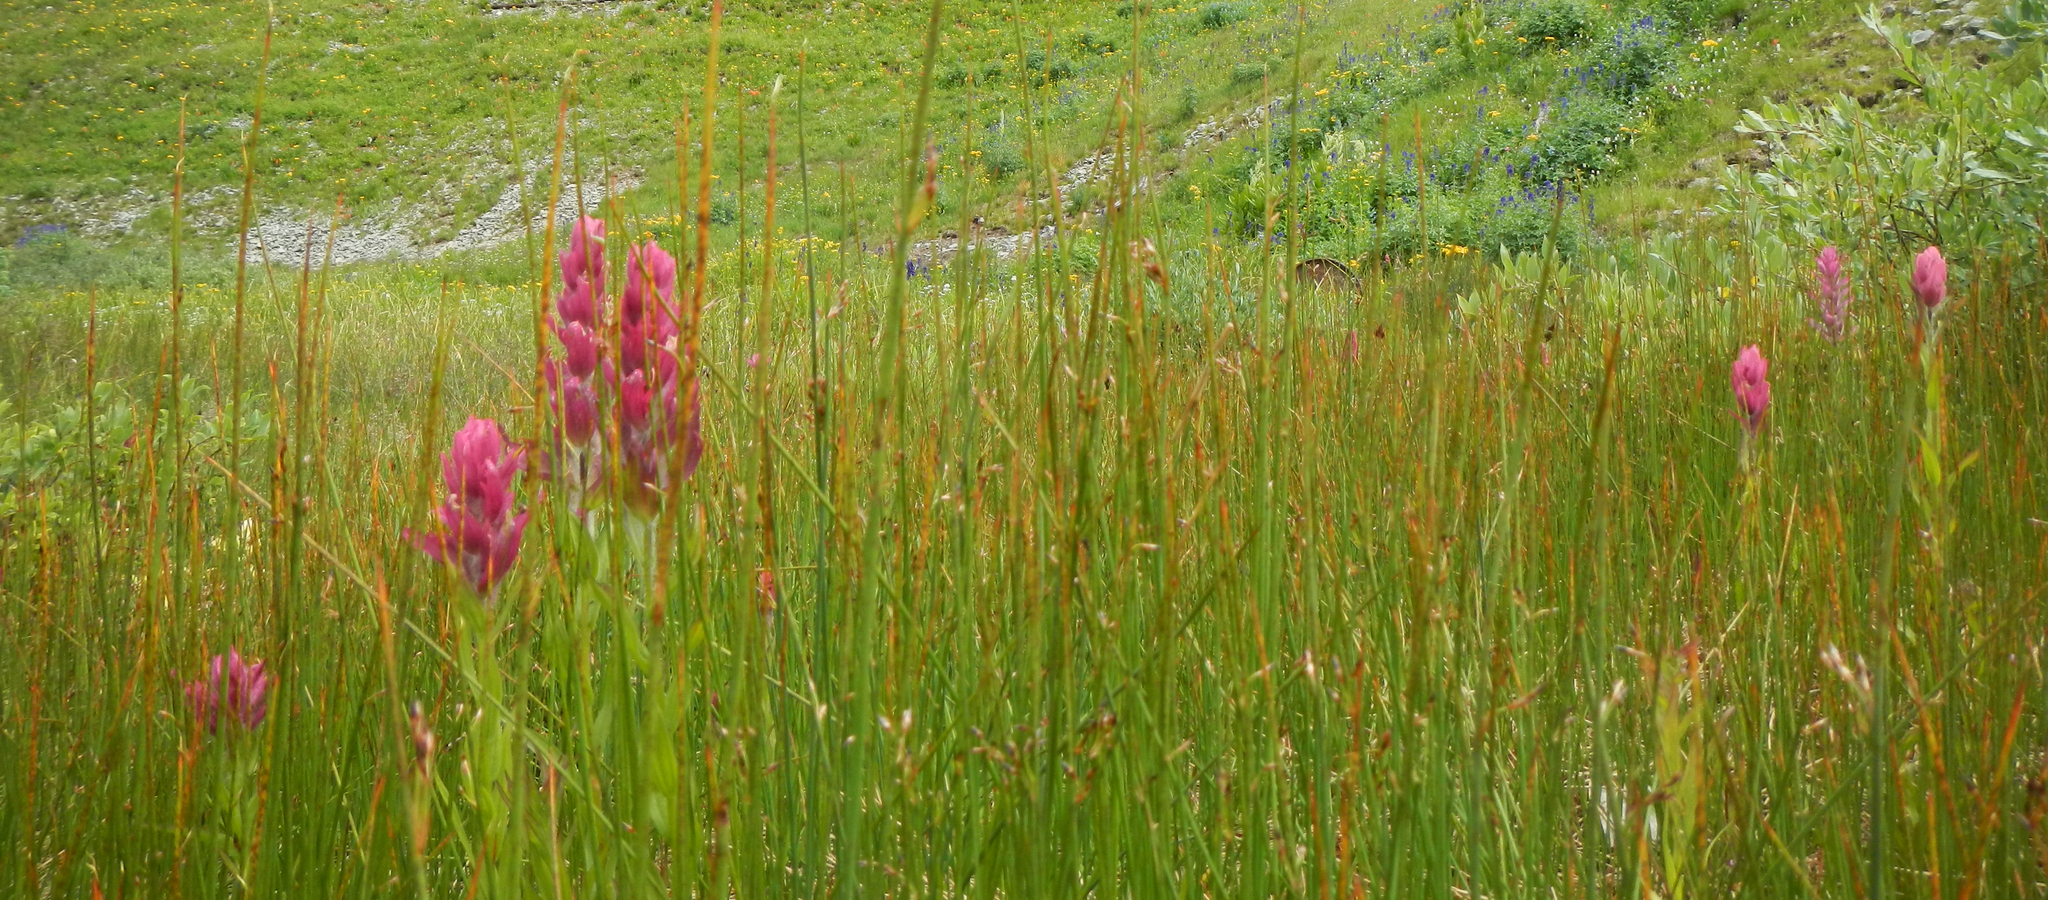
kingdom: Plantae
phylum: Tracheophyta
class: Magnoliopsida
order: Lamiales
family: Orobanchaceae
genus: Castilleja
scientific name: Castilleja rhexifolia
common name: Rocky mountain paintbrush
